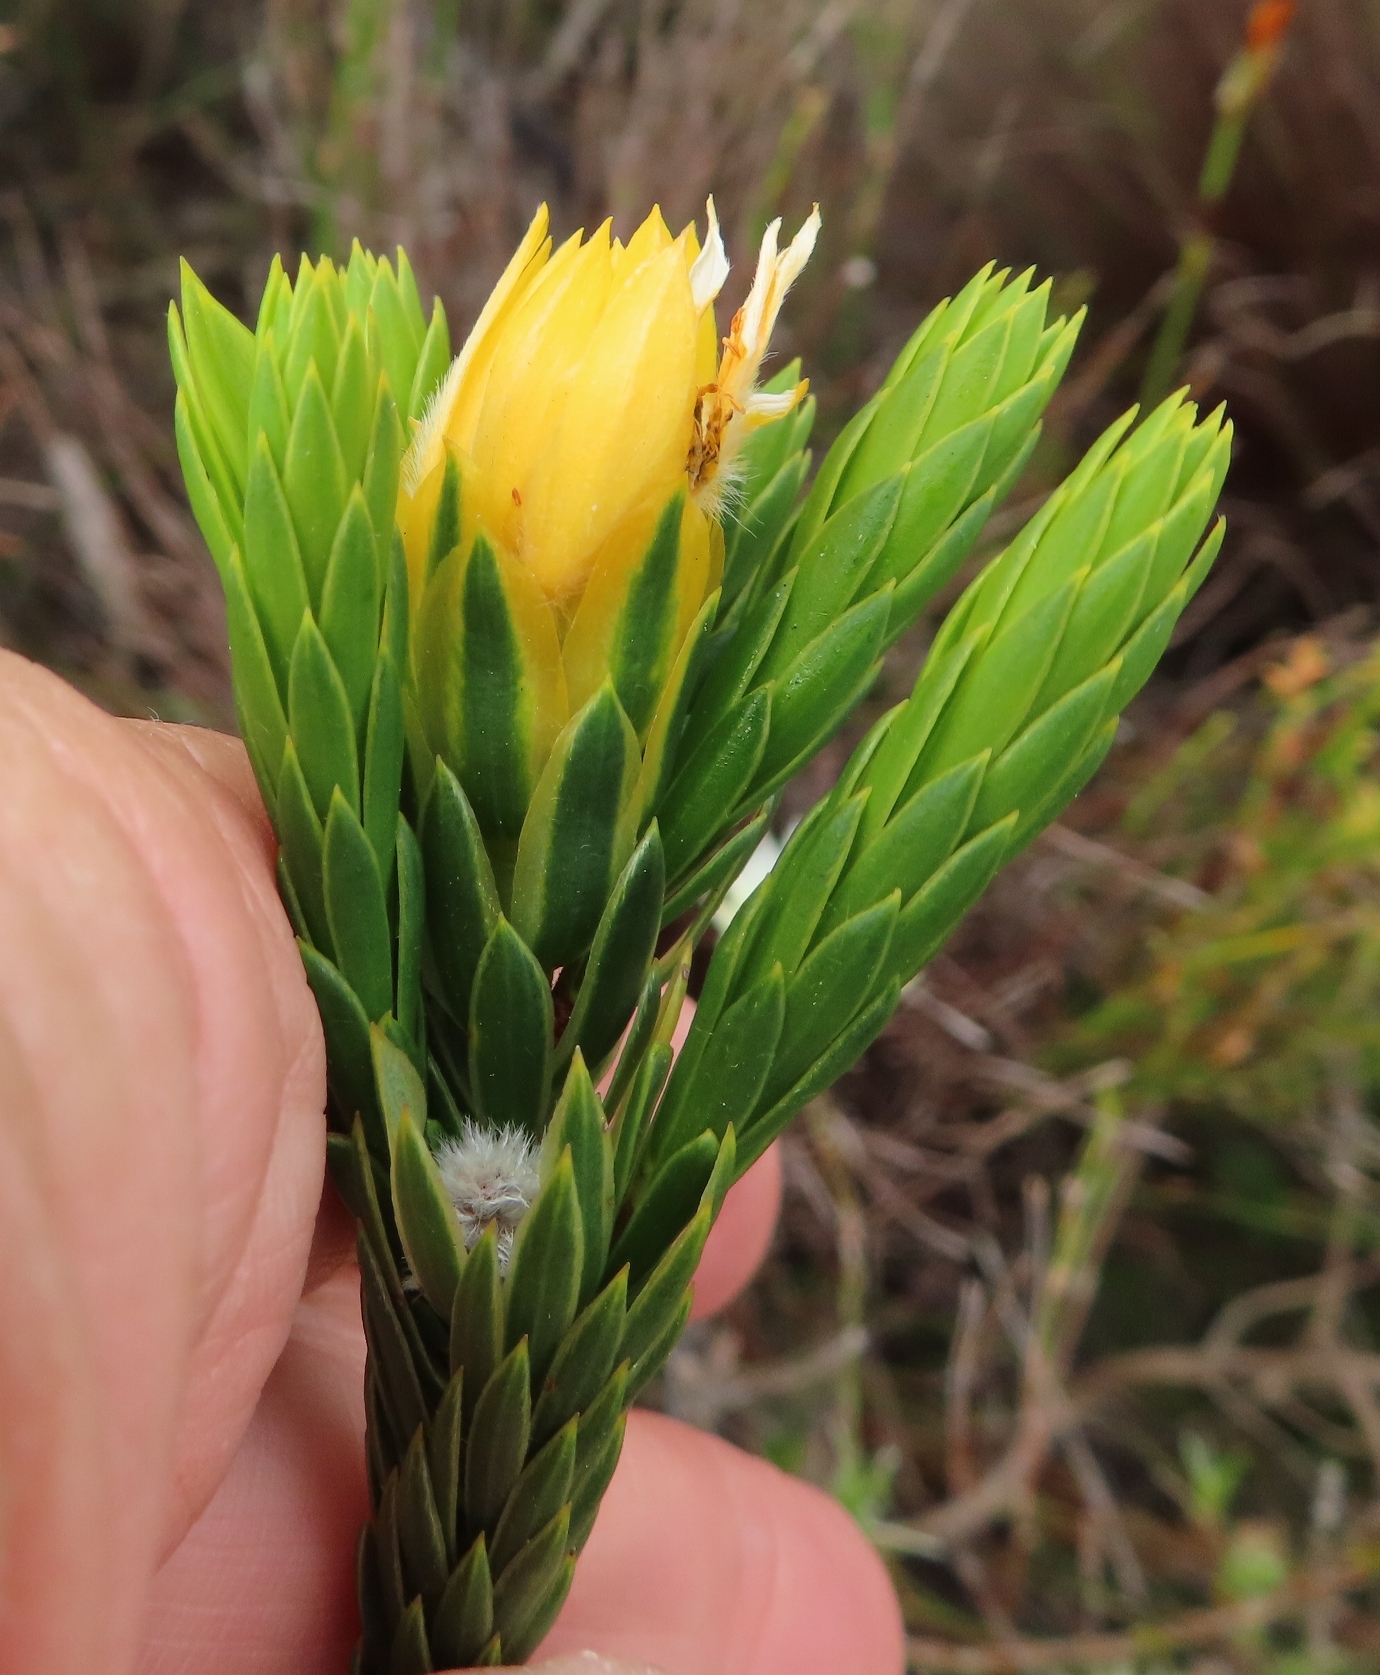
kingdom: Plantae
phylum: Tracheophyta
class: Magnoliopsida
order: Malvales
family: Thymelaeaceae
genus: Lachnaea
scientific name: Lachnaea aurea
